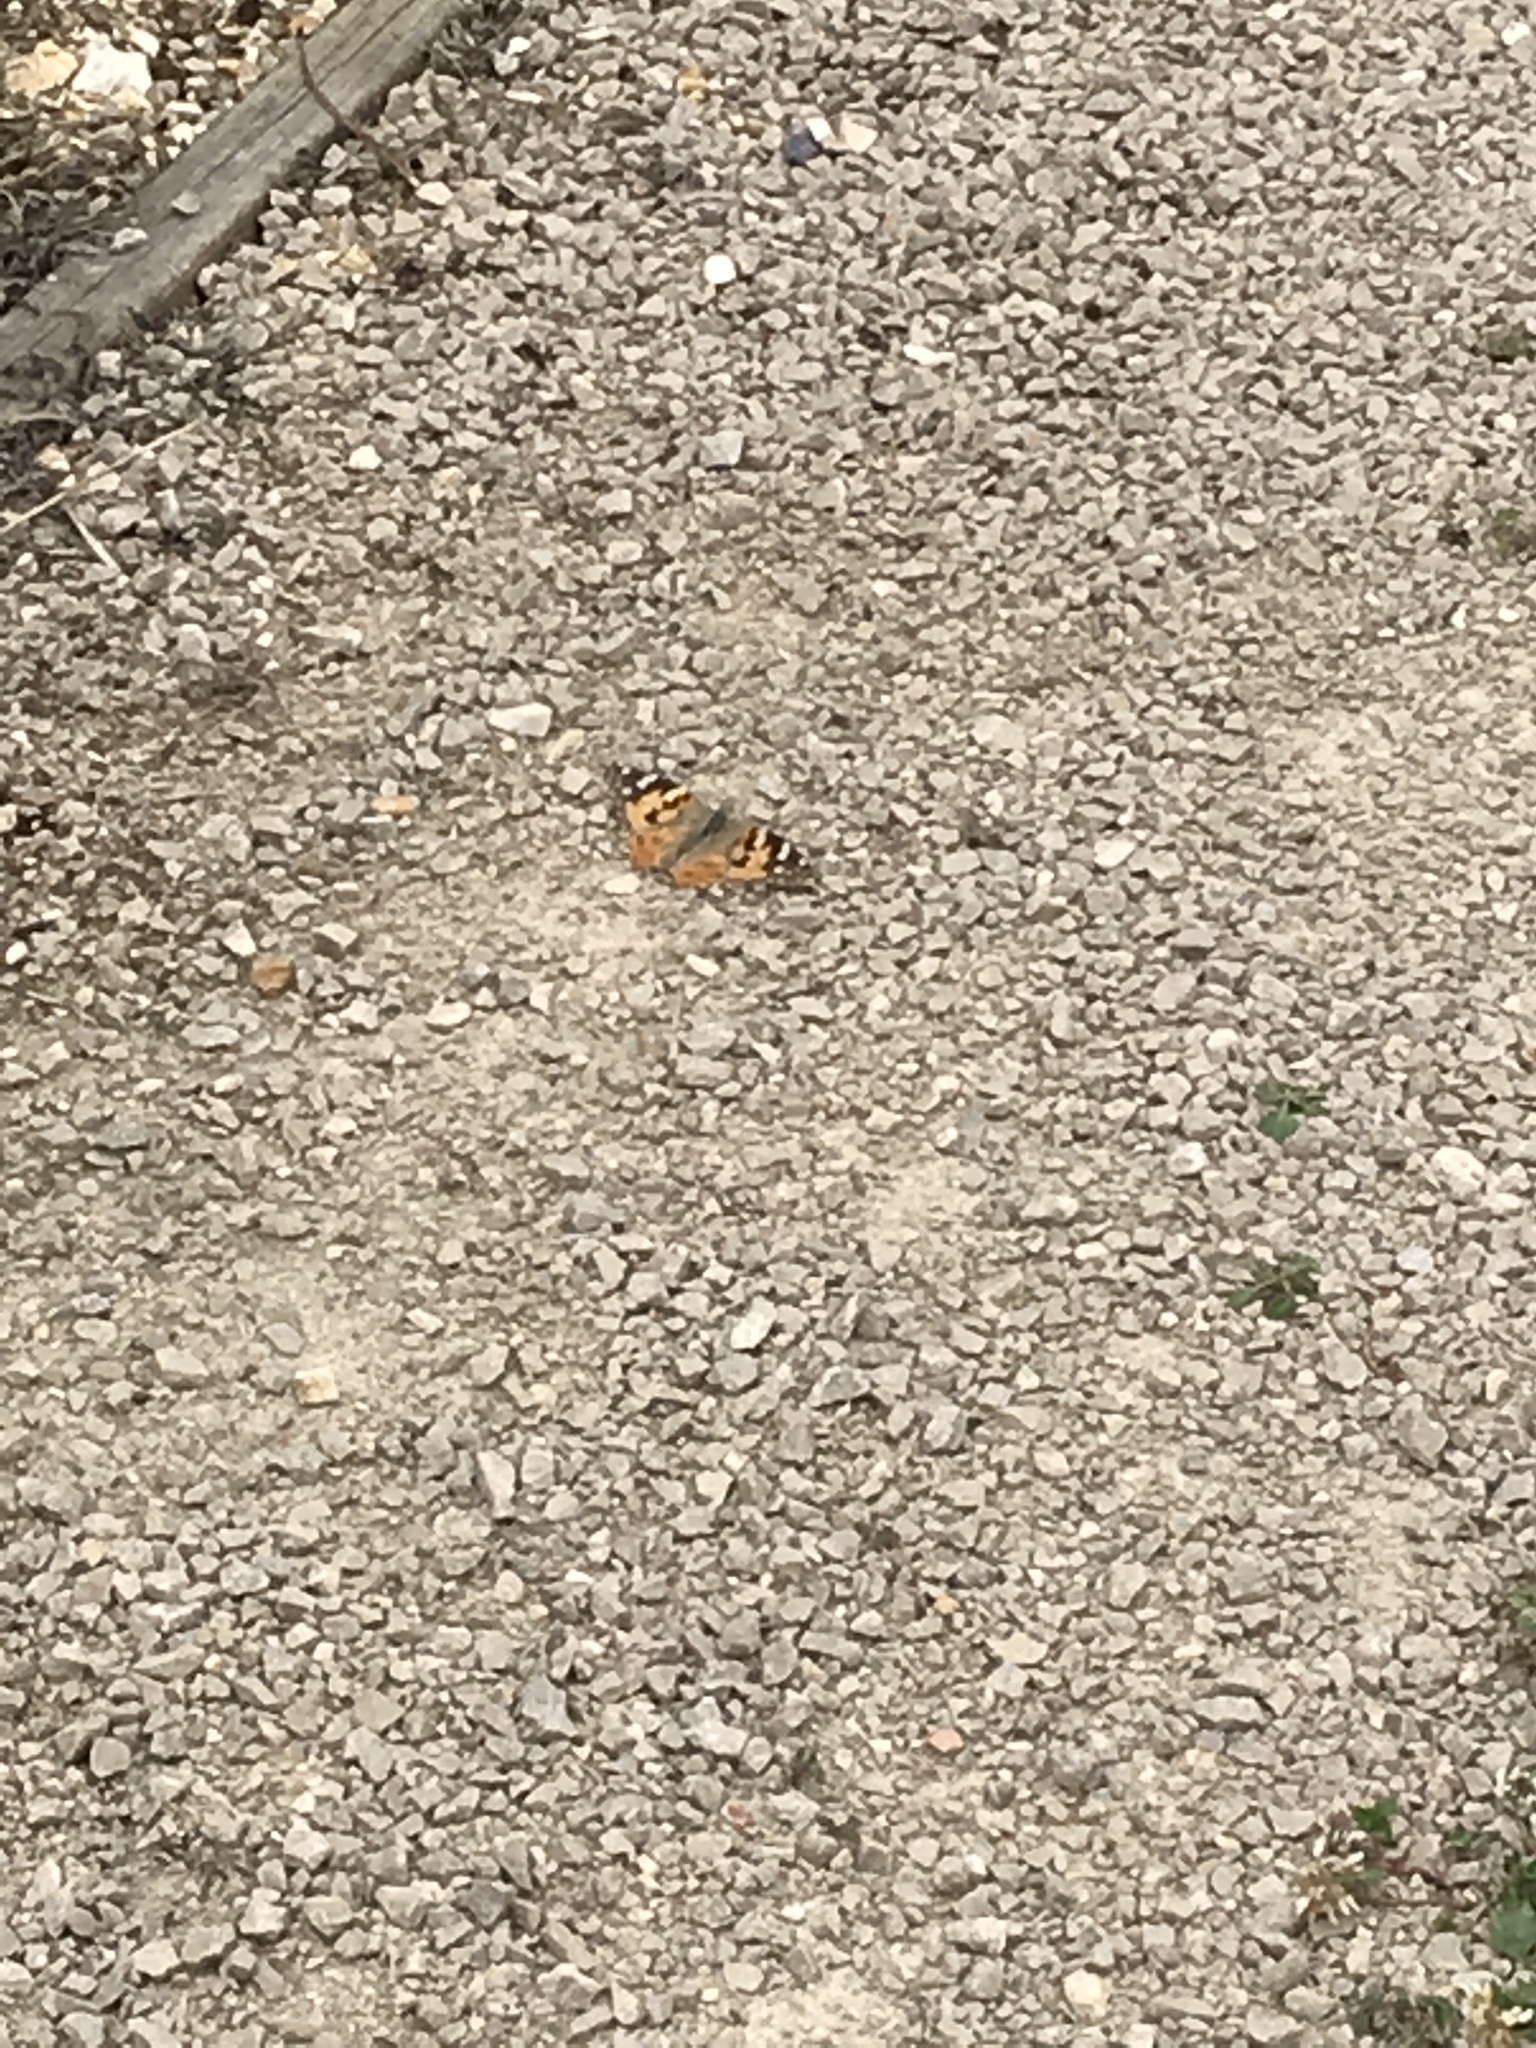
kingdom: Animalia
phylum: Arthropoda
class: Insecta
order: Lepidoptera
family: Nymphalidae
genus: Vanessa
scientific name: Vanessa cardui
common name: Painted lady
